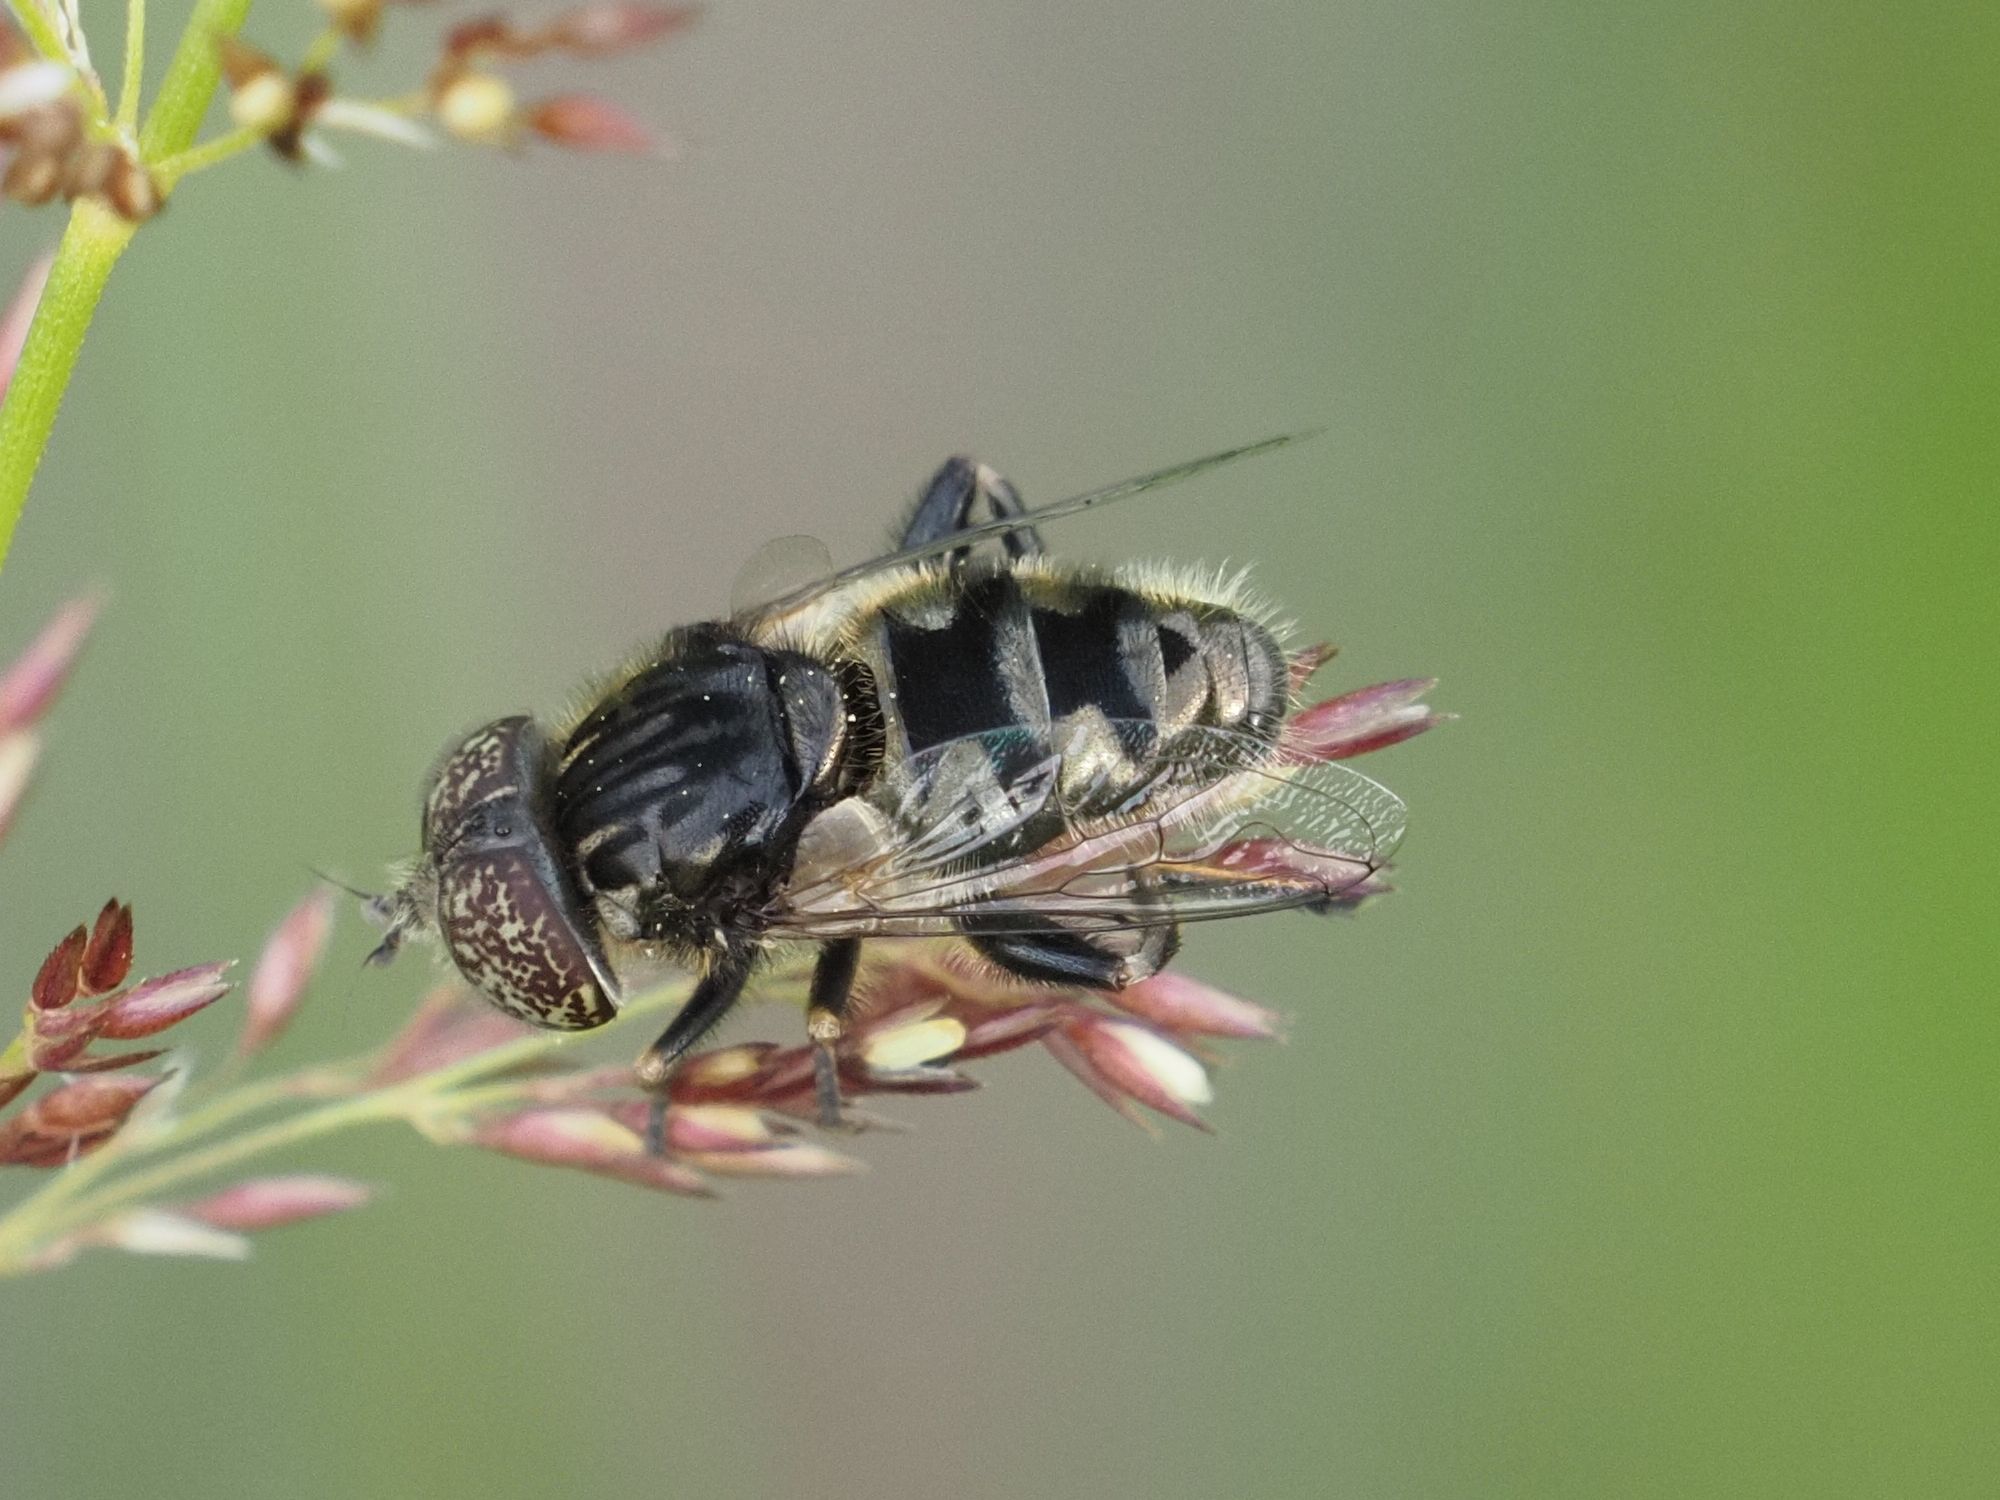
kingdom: Animalia
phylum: Arthropoda
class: Insecta
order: Diptera
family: Syrphidae
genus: Eristalinus
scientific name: Eristalinus sepulchralis
